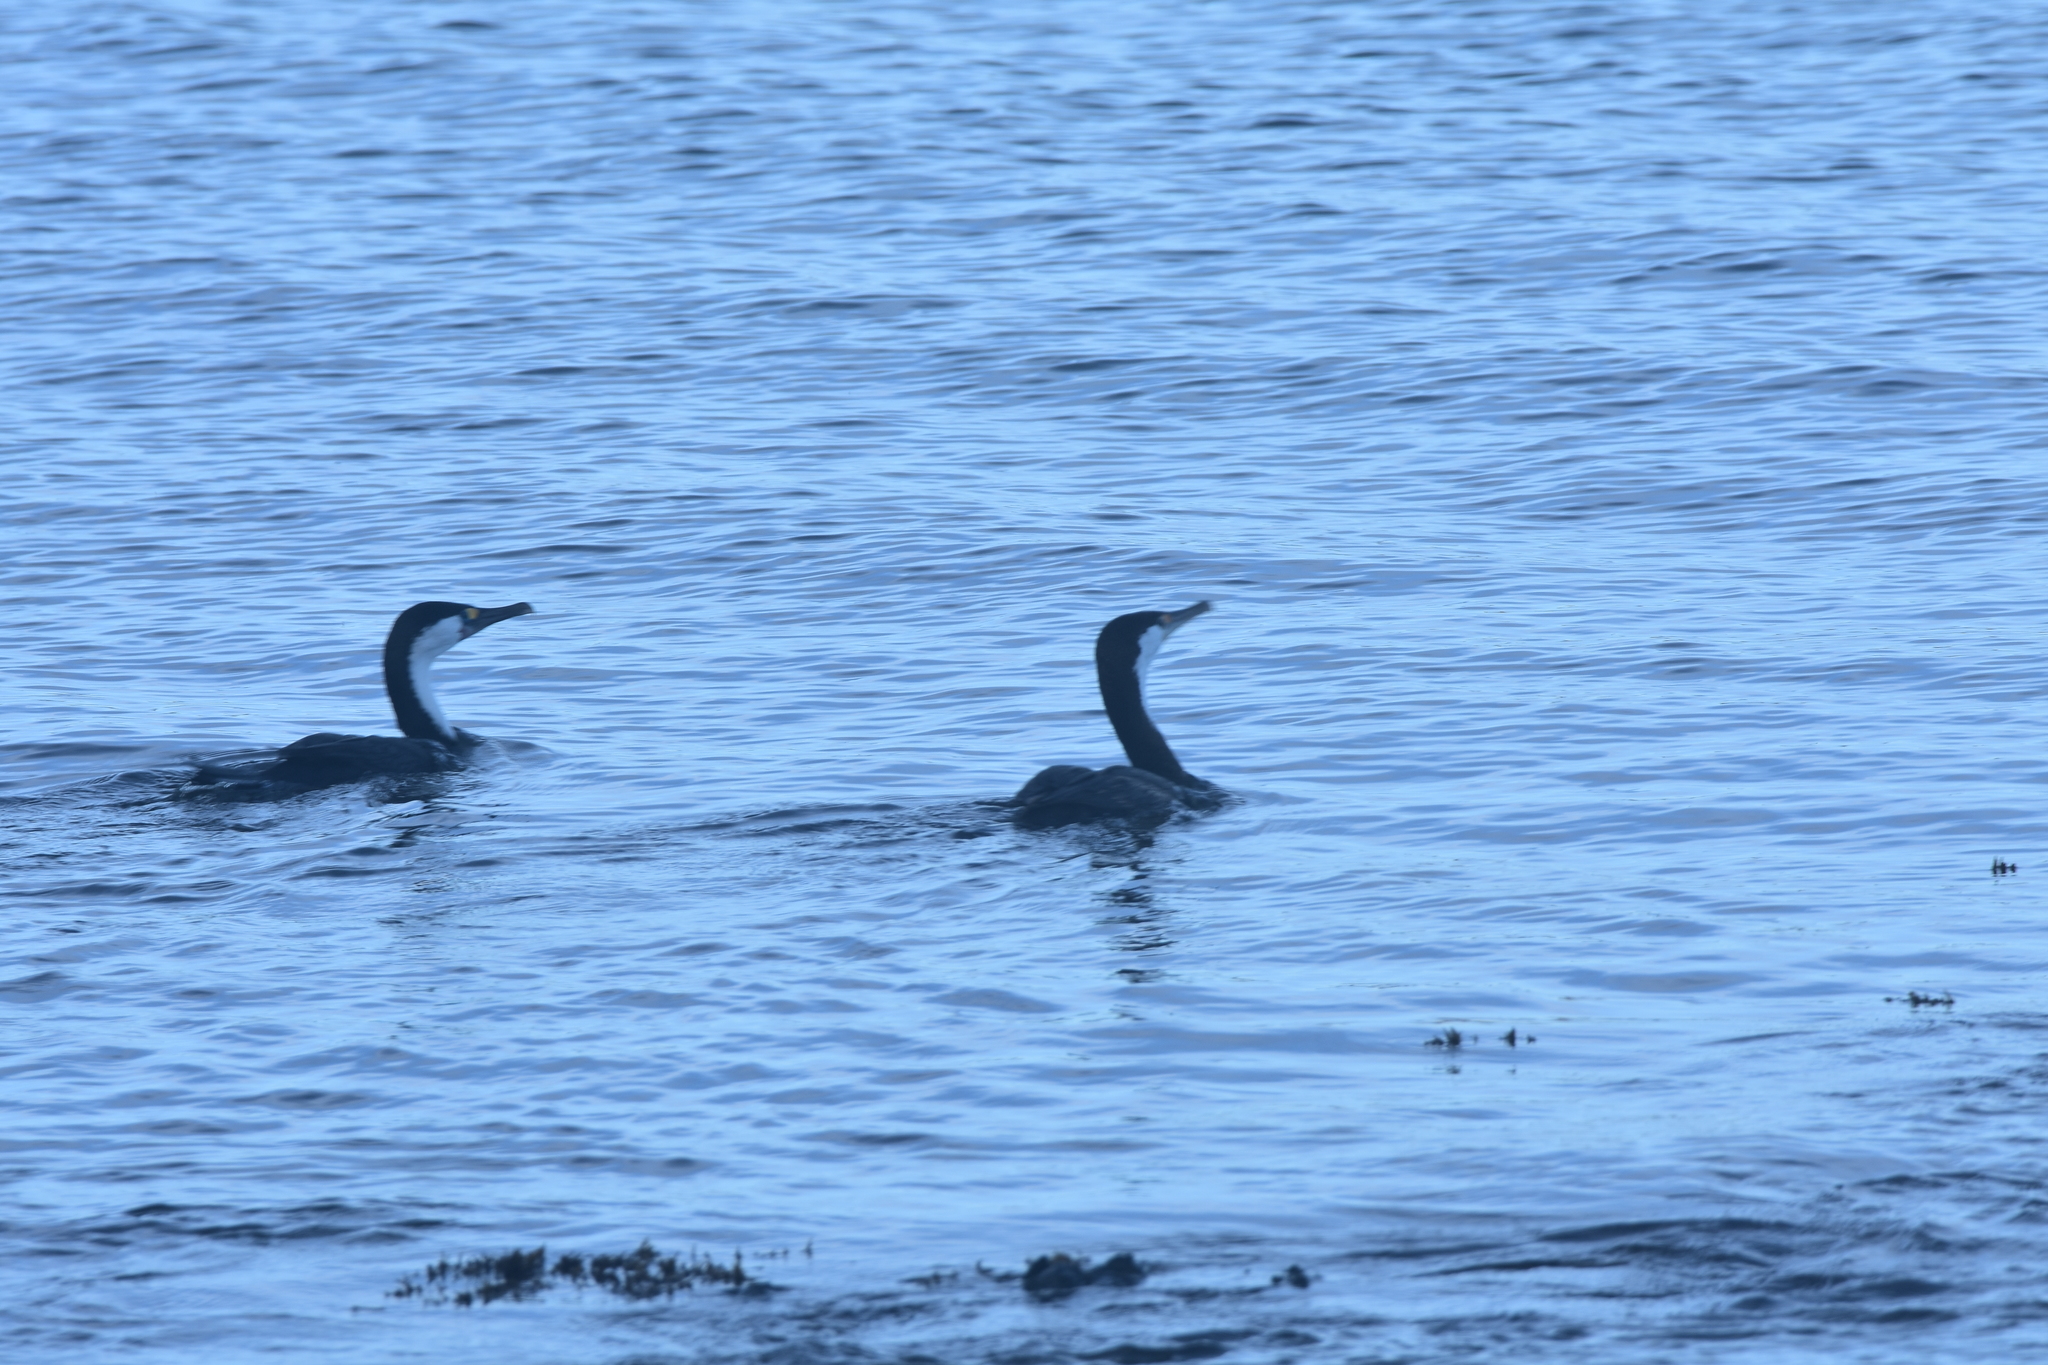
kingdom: Animalia
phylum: Chordata
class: Aves
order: Suliformes
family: Phalacrocoracidae
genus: Phalacrocorax
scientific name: Phalacrocorax varius
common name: Pied cormorant
